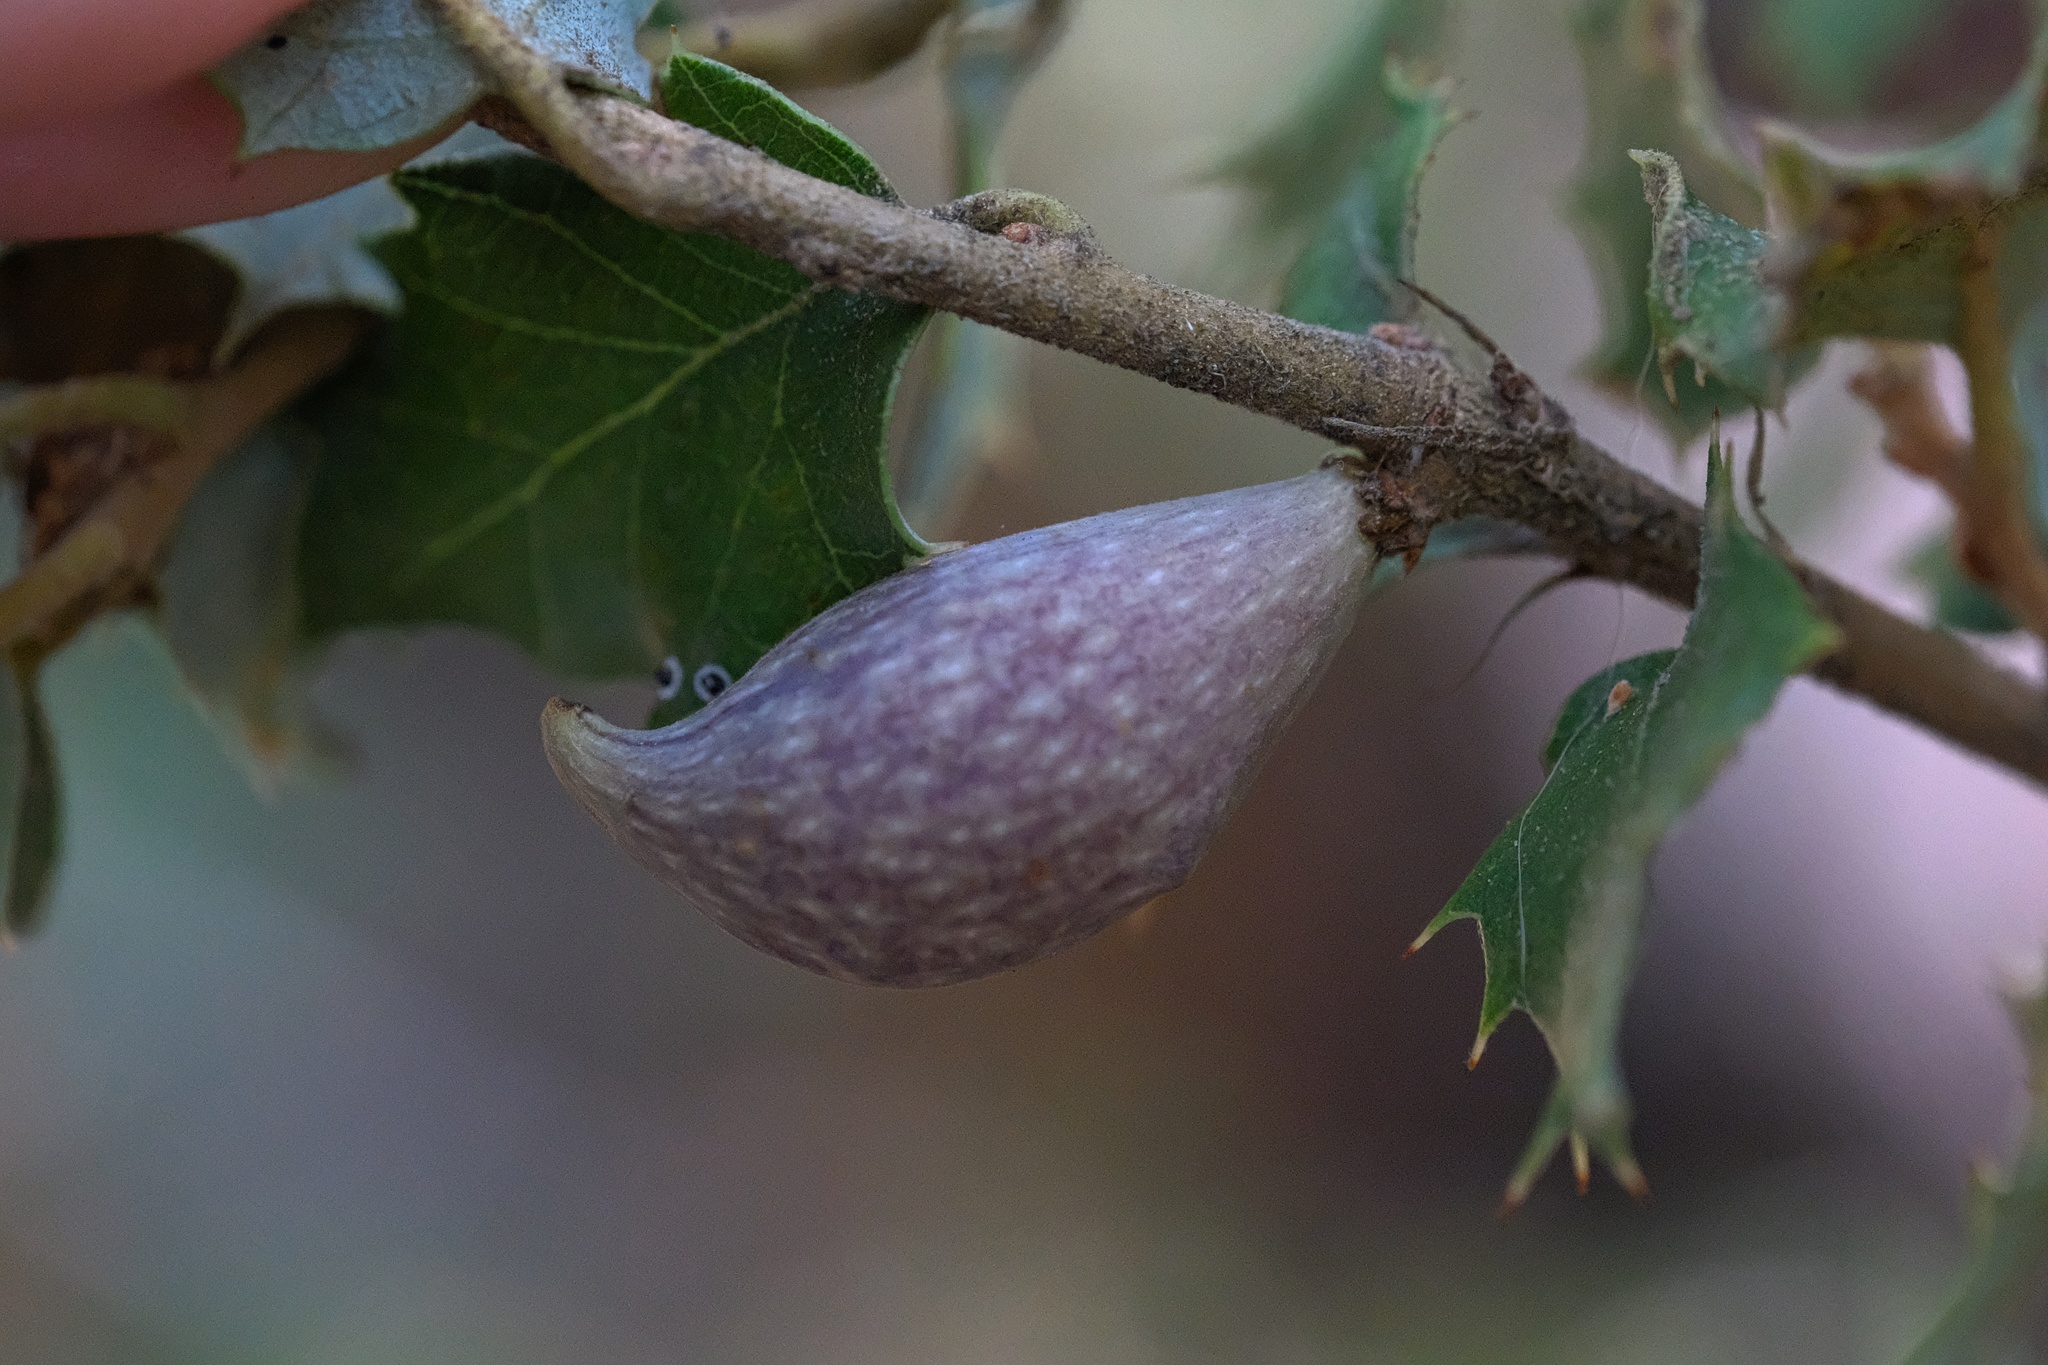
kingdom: Animalia
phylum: Arthropoda
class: Insecta
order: Hymenoptera
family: Cynipidae
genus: Heteroecus
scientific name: Heteroecus pacificus
